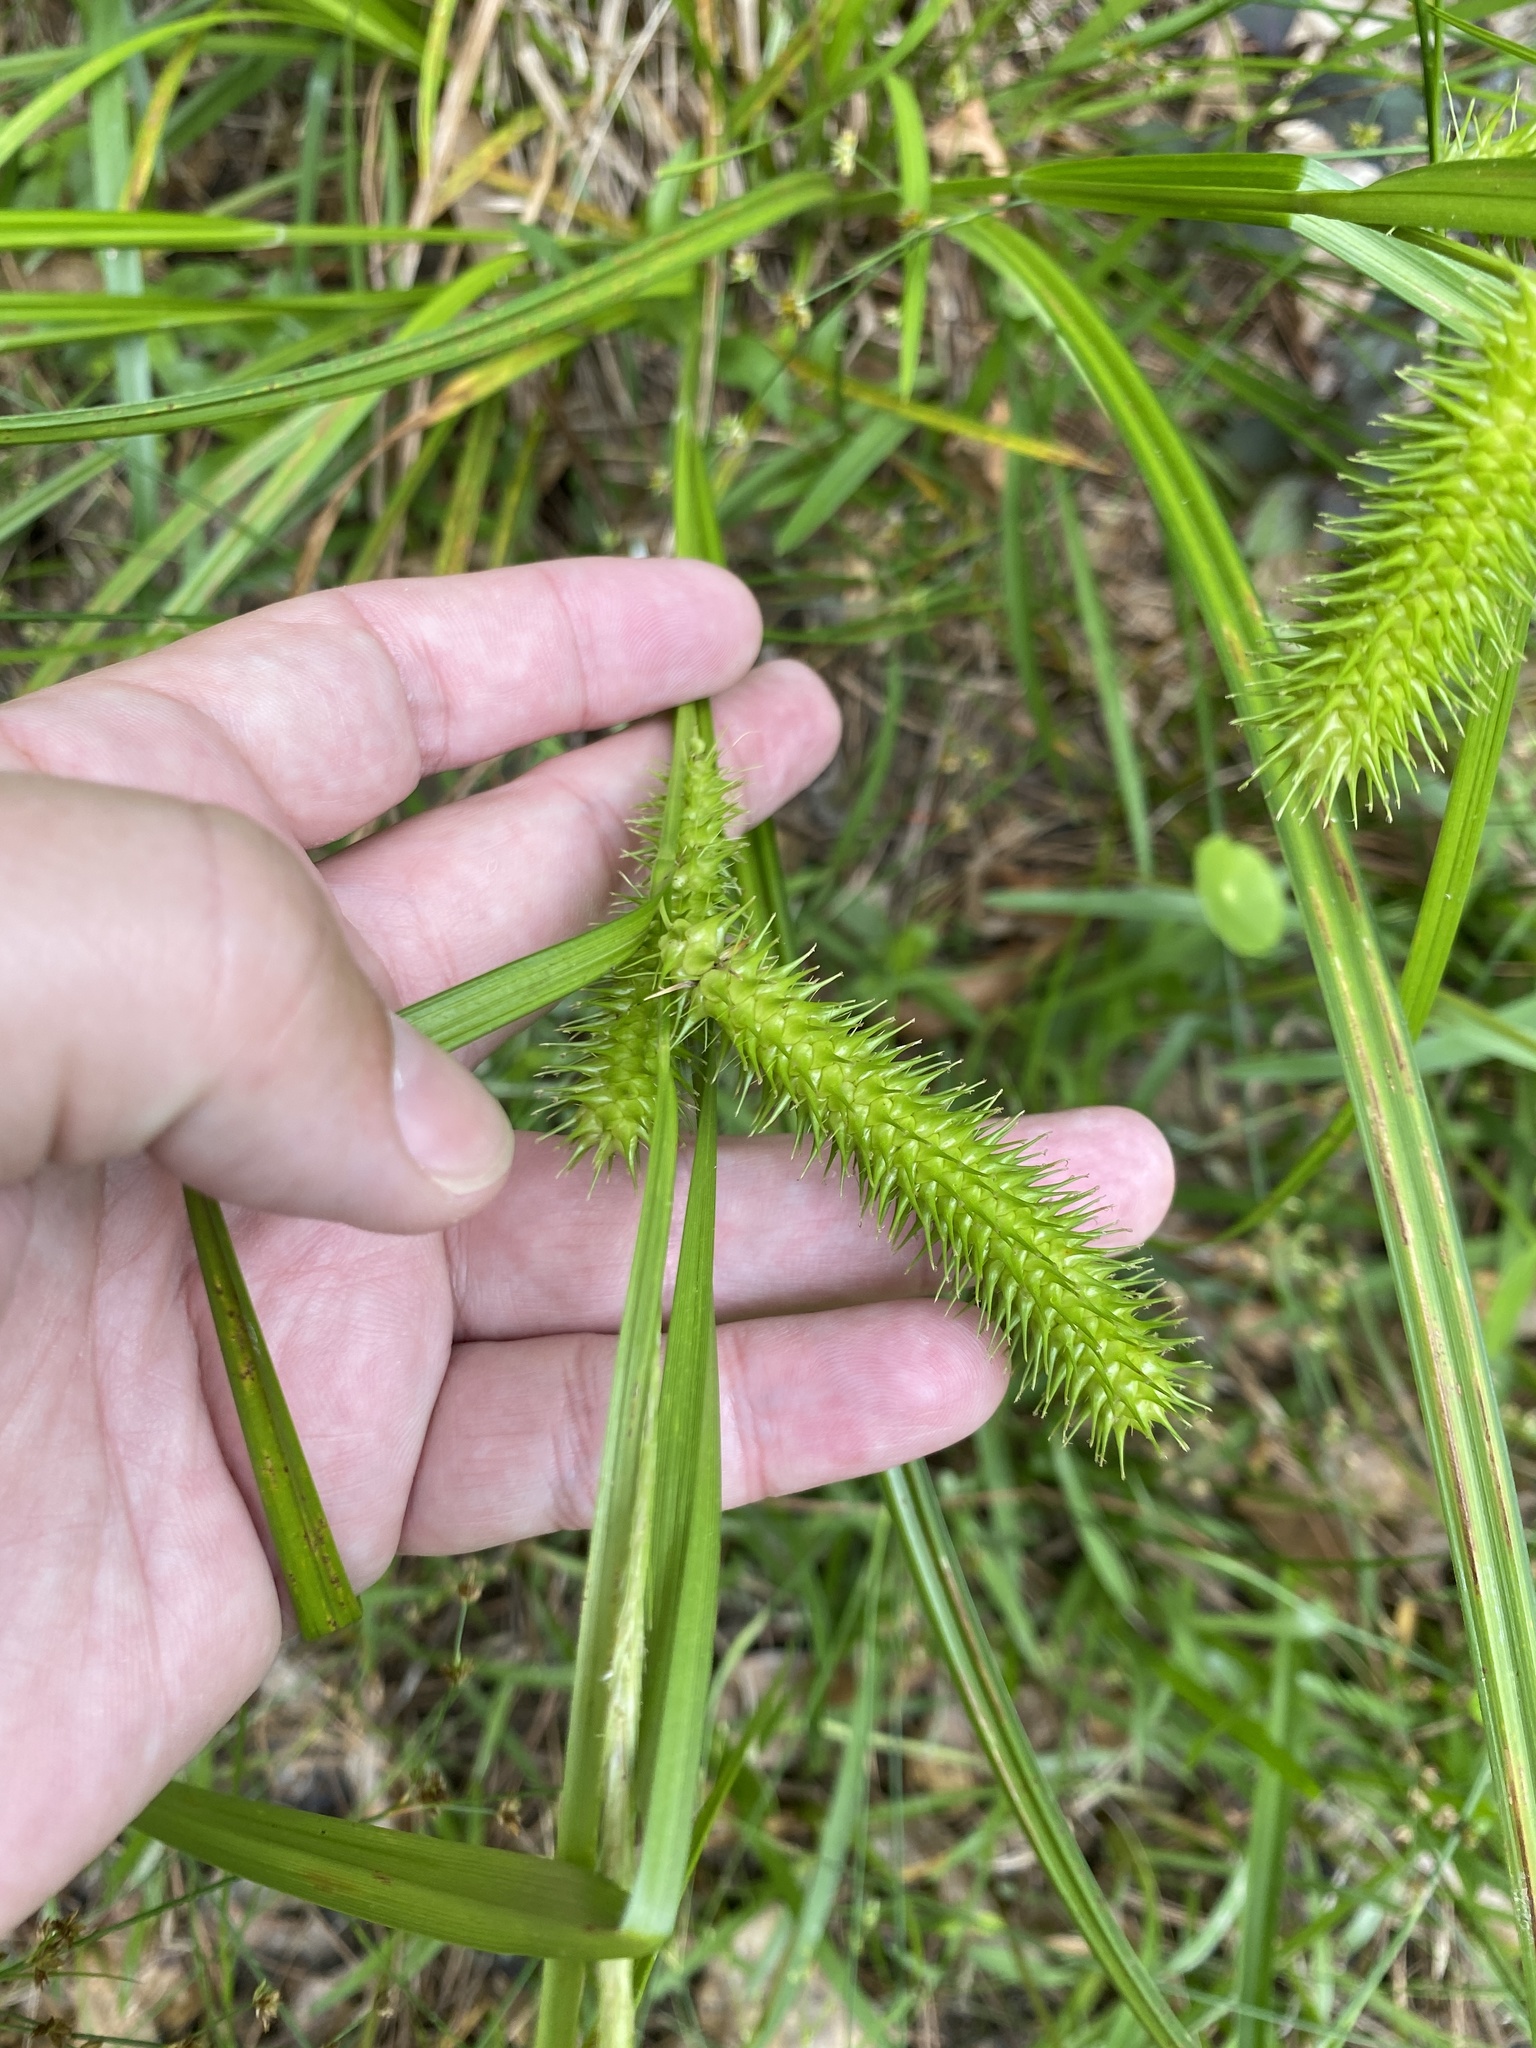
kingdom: Plantae
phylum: Tracheophyta
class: Liliopsida
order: Poales
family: Cyperaceae
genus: Carex
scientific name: Carex lurida
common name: Sallow sedge
